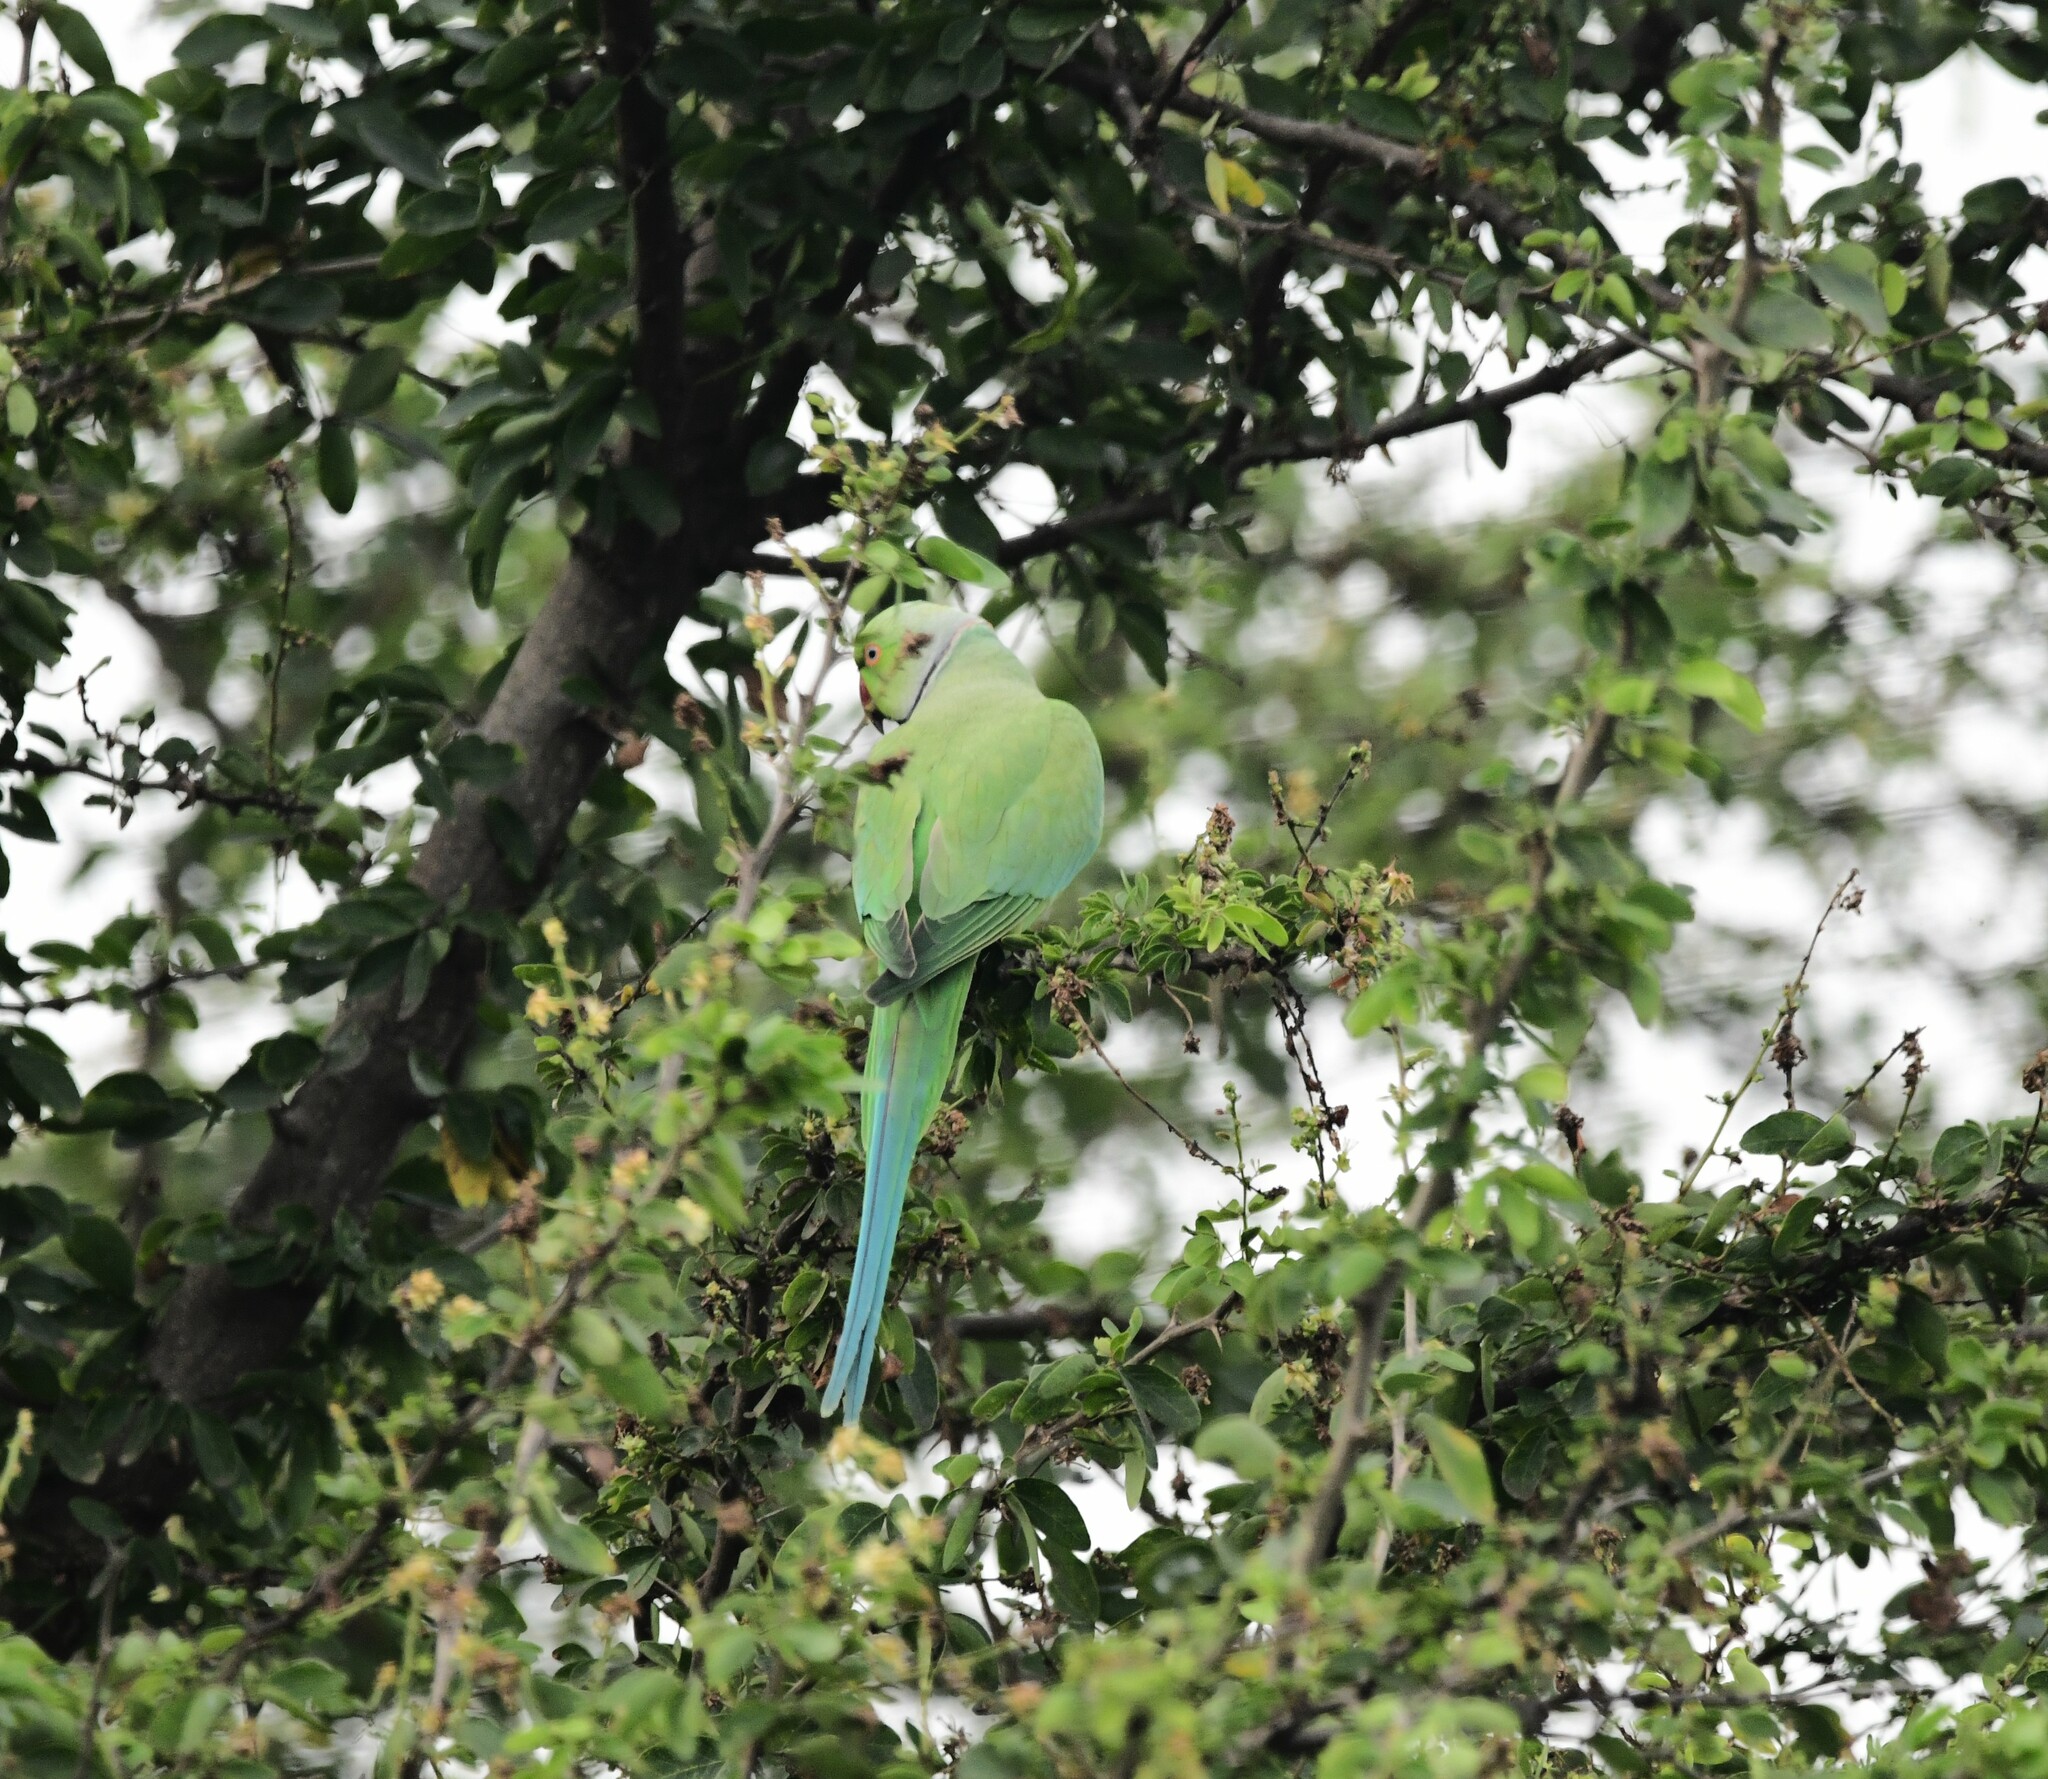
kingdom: Animalia
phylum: Chordata
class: Aves
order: Psittaciformes
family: Psittacidae
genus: Psittacula
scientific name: Psittacula krameri
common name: Rose-ringed parakeet
